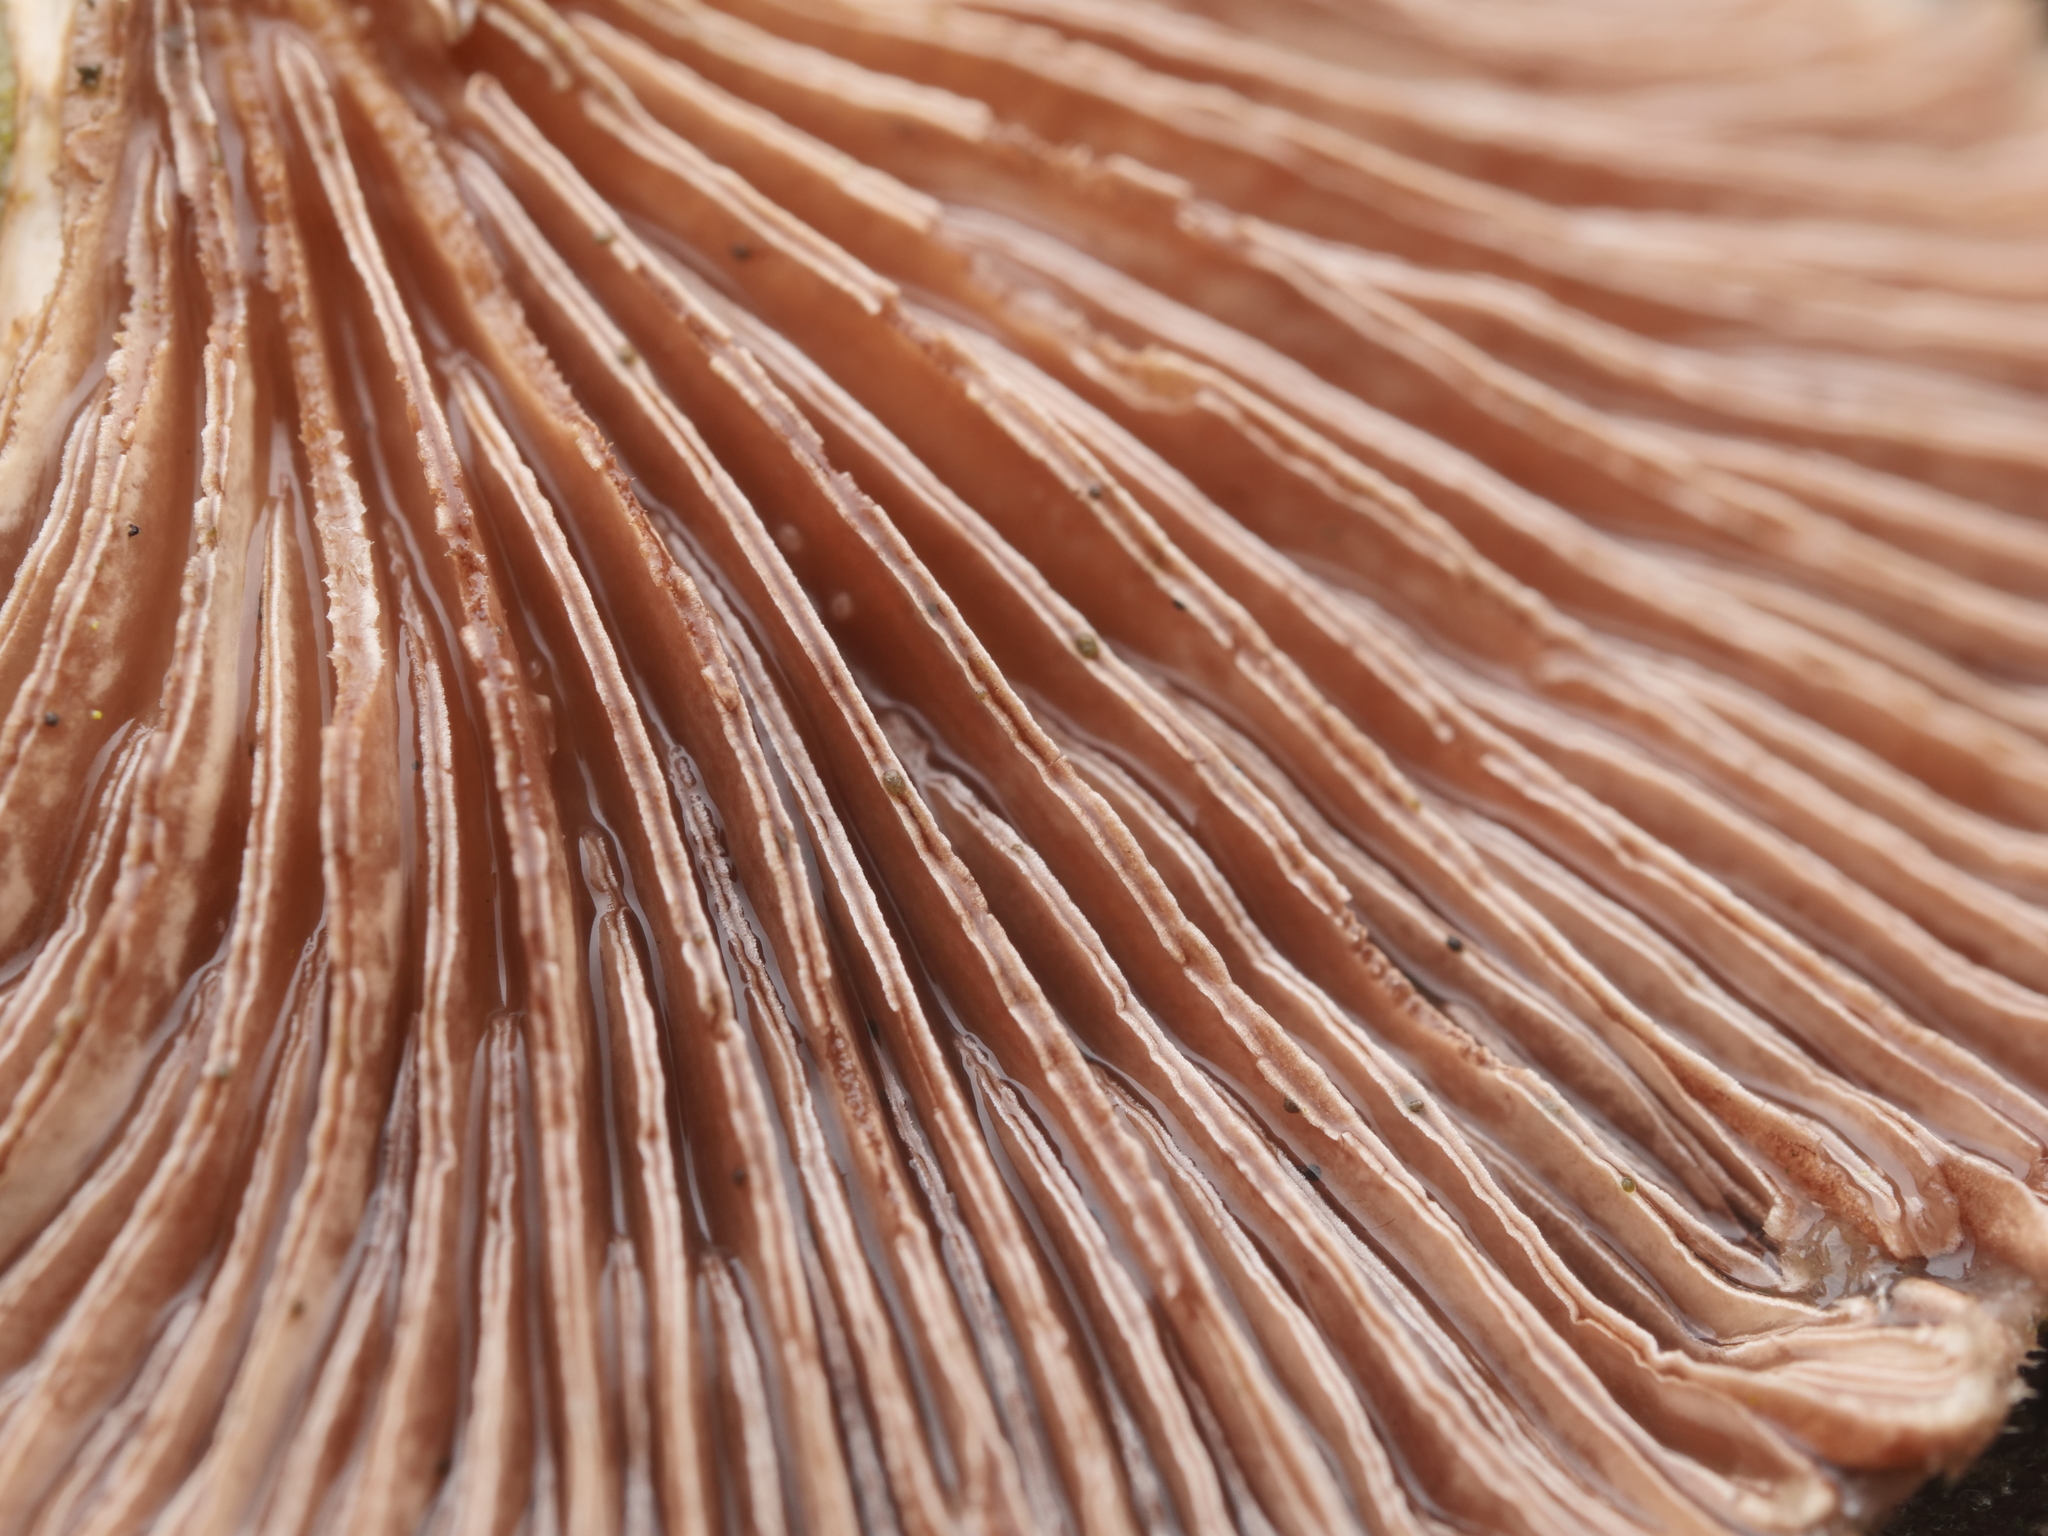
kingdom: Fungi
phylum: Basidiomycota
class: Agaricomycetes
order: Agaricales
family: Schizophyllaceae
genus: Schizophyllum
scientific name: Schizophyllum commune
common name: Common porecrust
